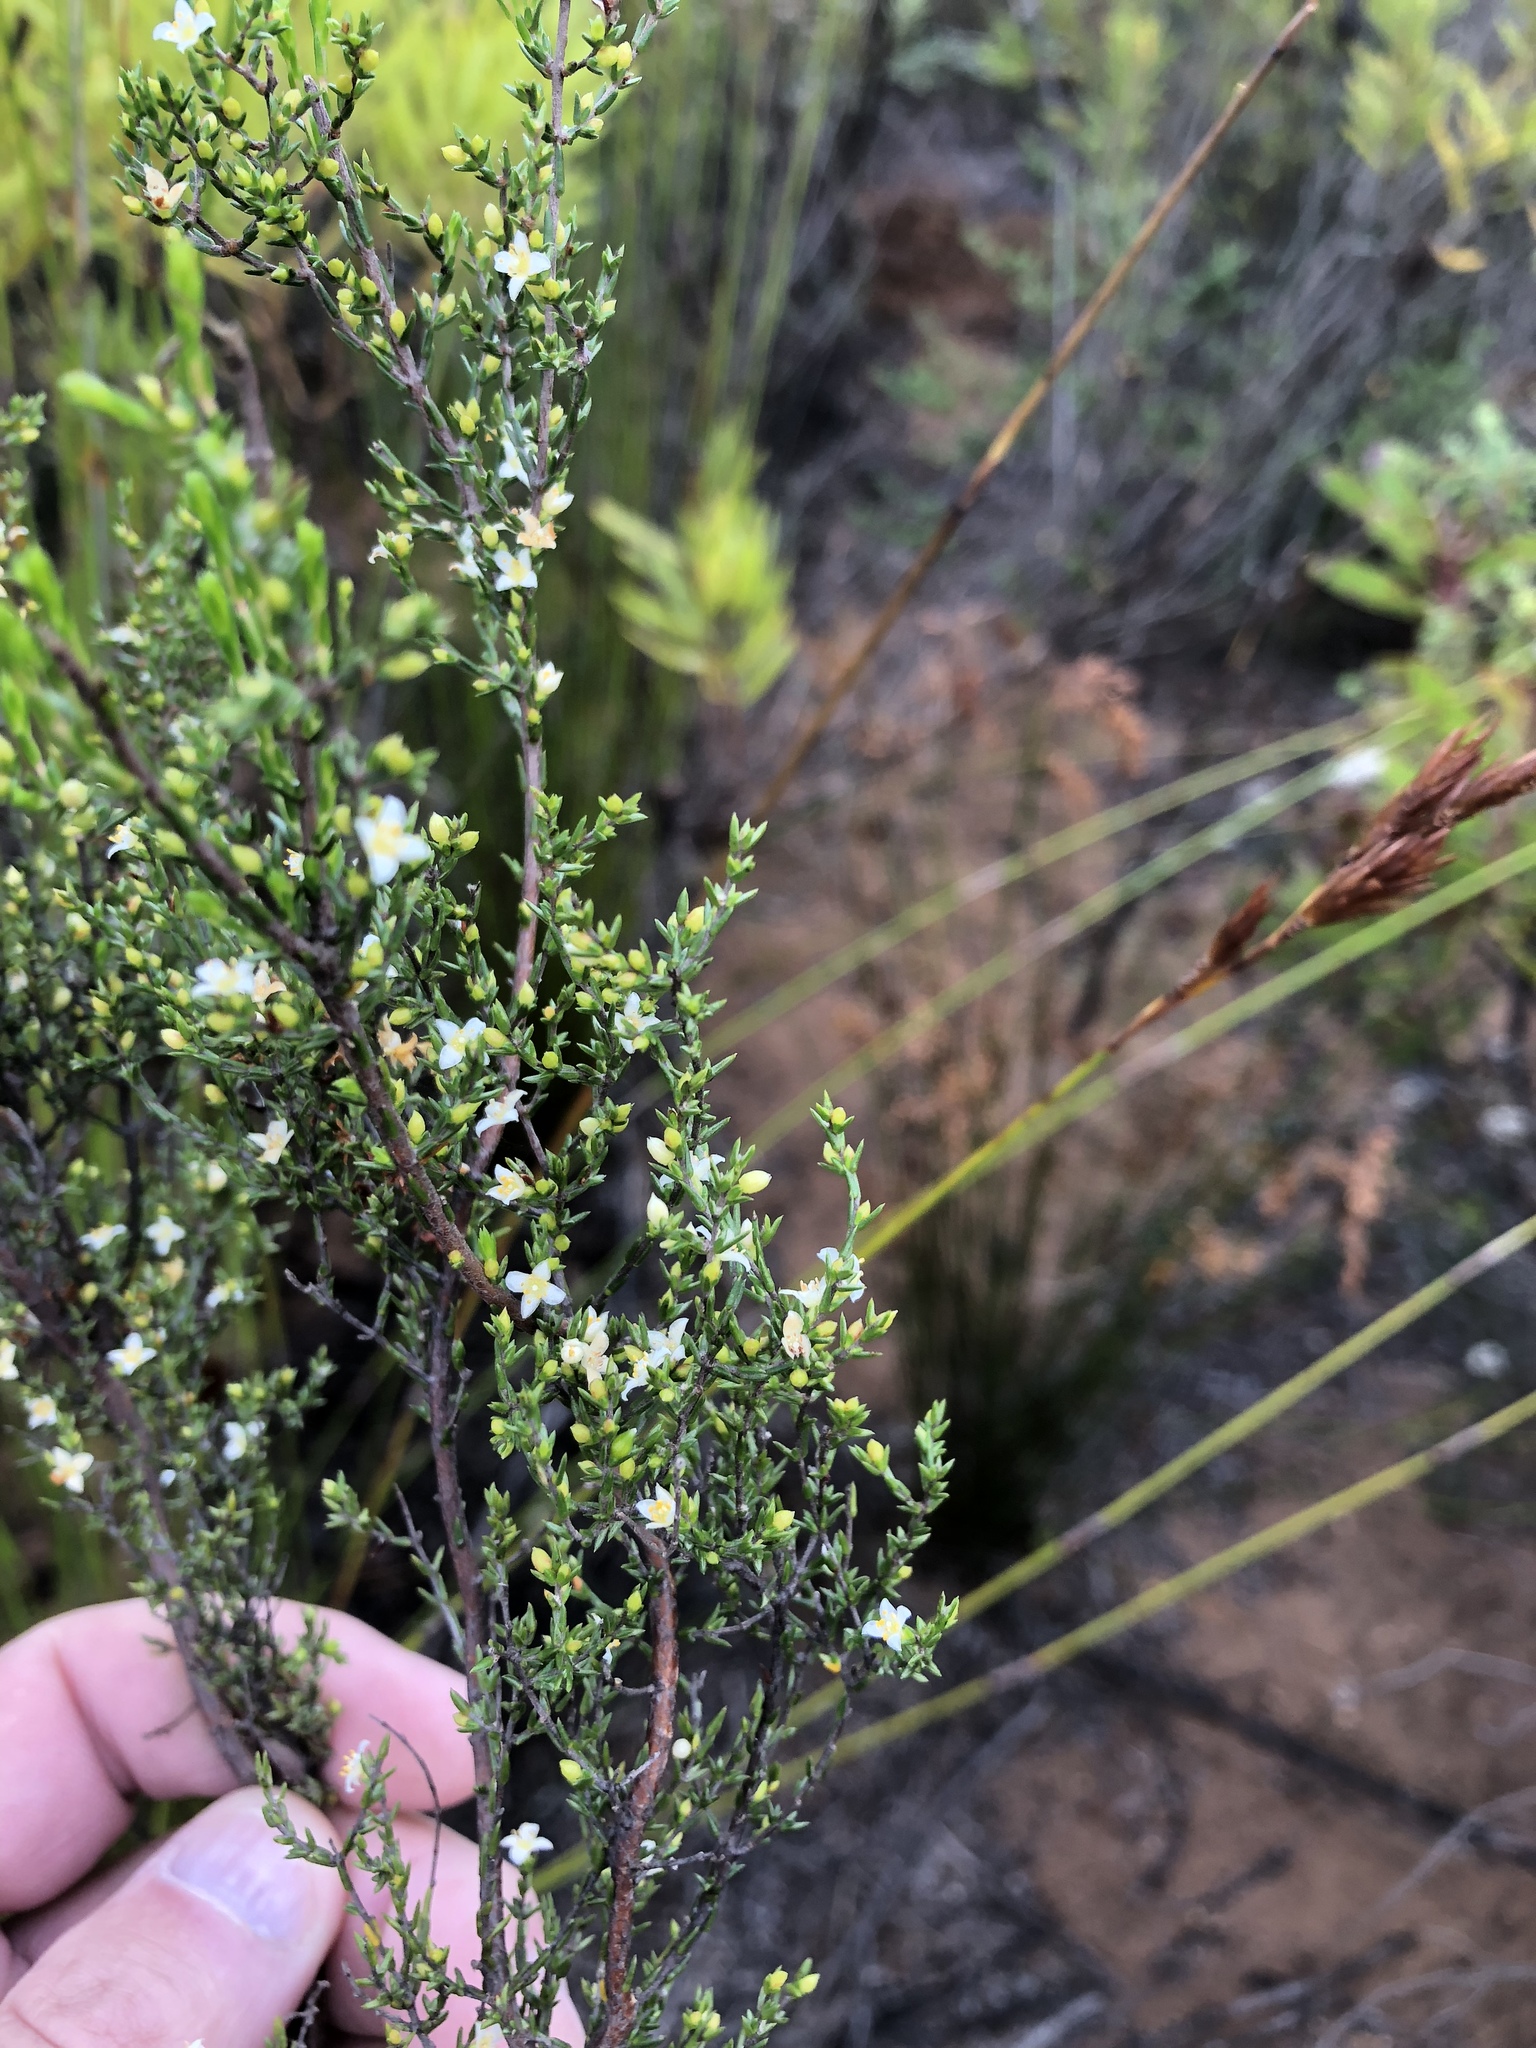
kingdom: Plantae
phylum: Tracheophyta
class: Magnoliopsida
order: Malvales
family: Thymelaeaceae
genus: Lachnaea
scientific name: Lachnaea axillaris
